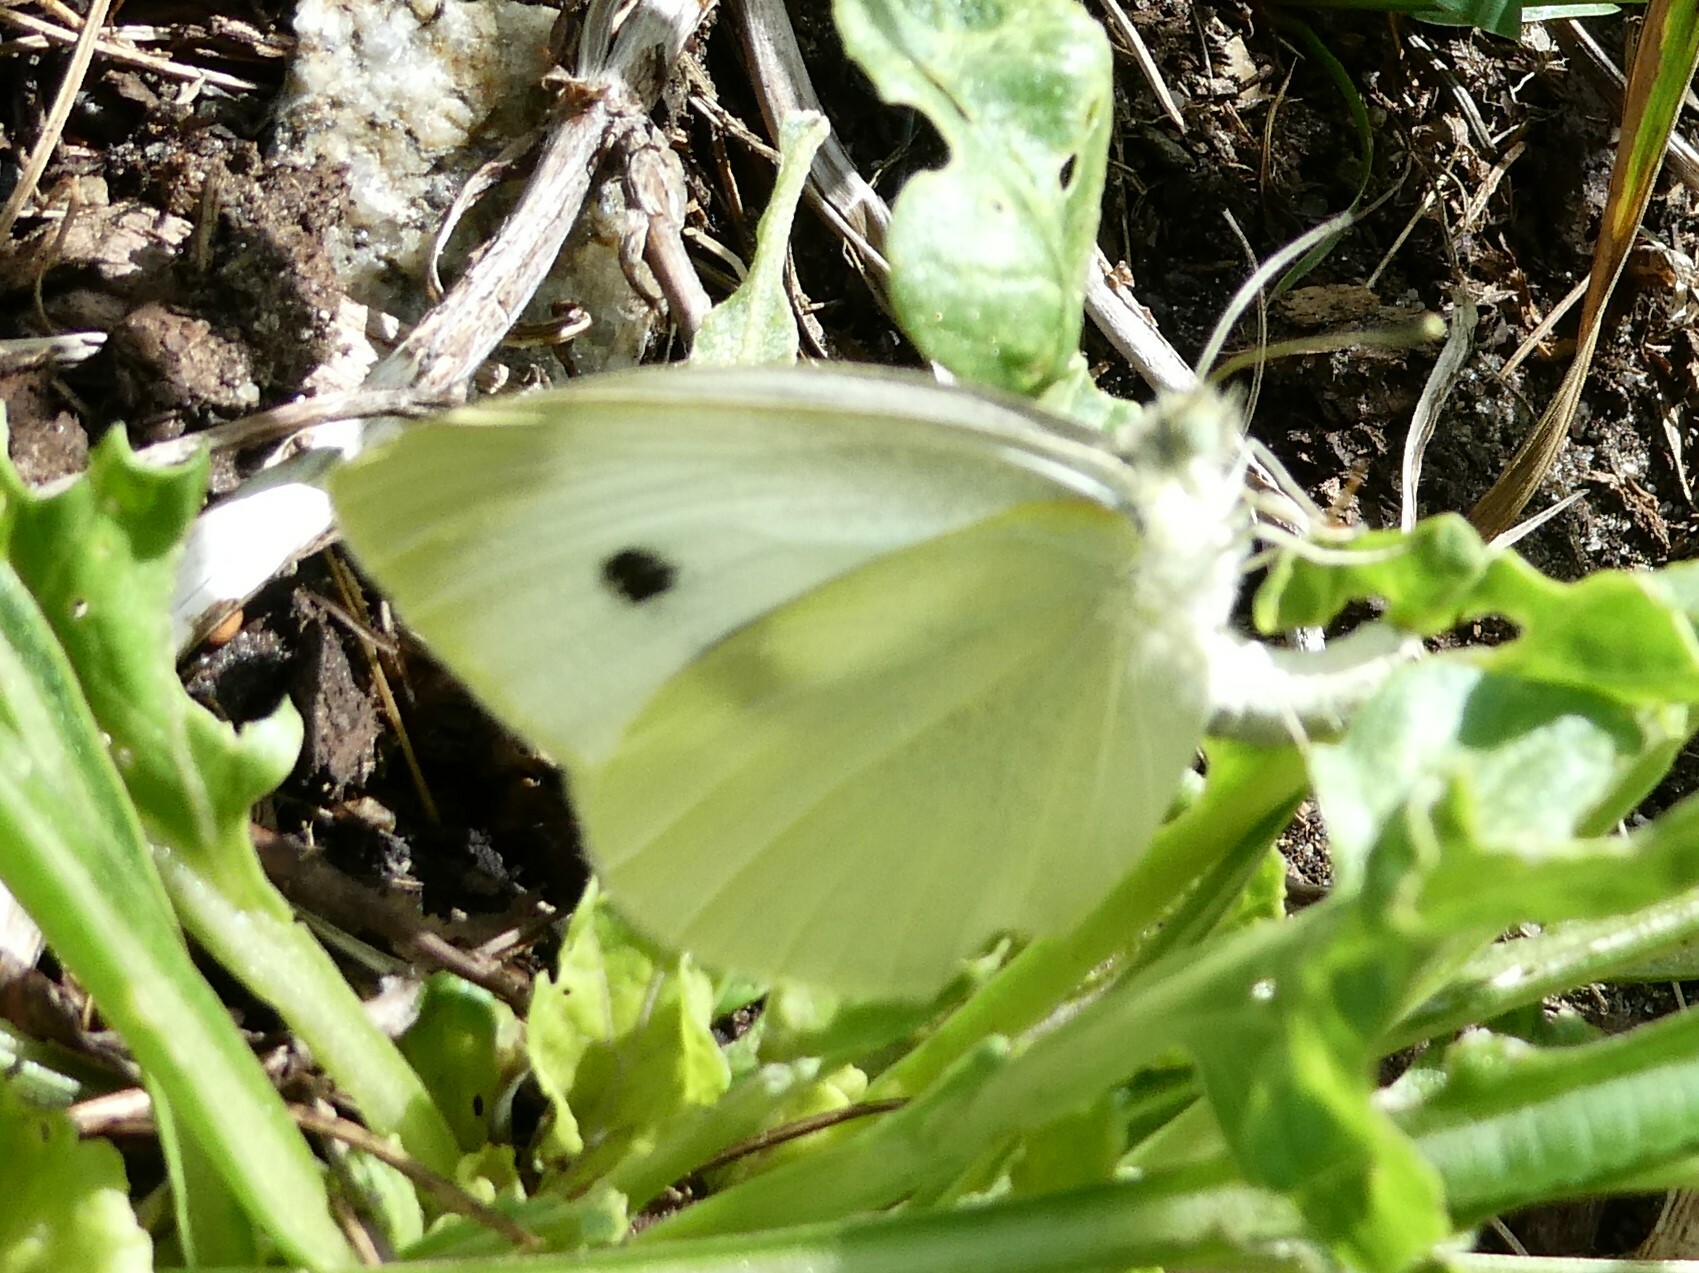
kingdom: Animalia
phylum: Arthropoda
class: Insecta
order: Lepidoptera
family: Pieridae
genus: Pieris
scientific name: Pieris rapae
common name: Small white
